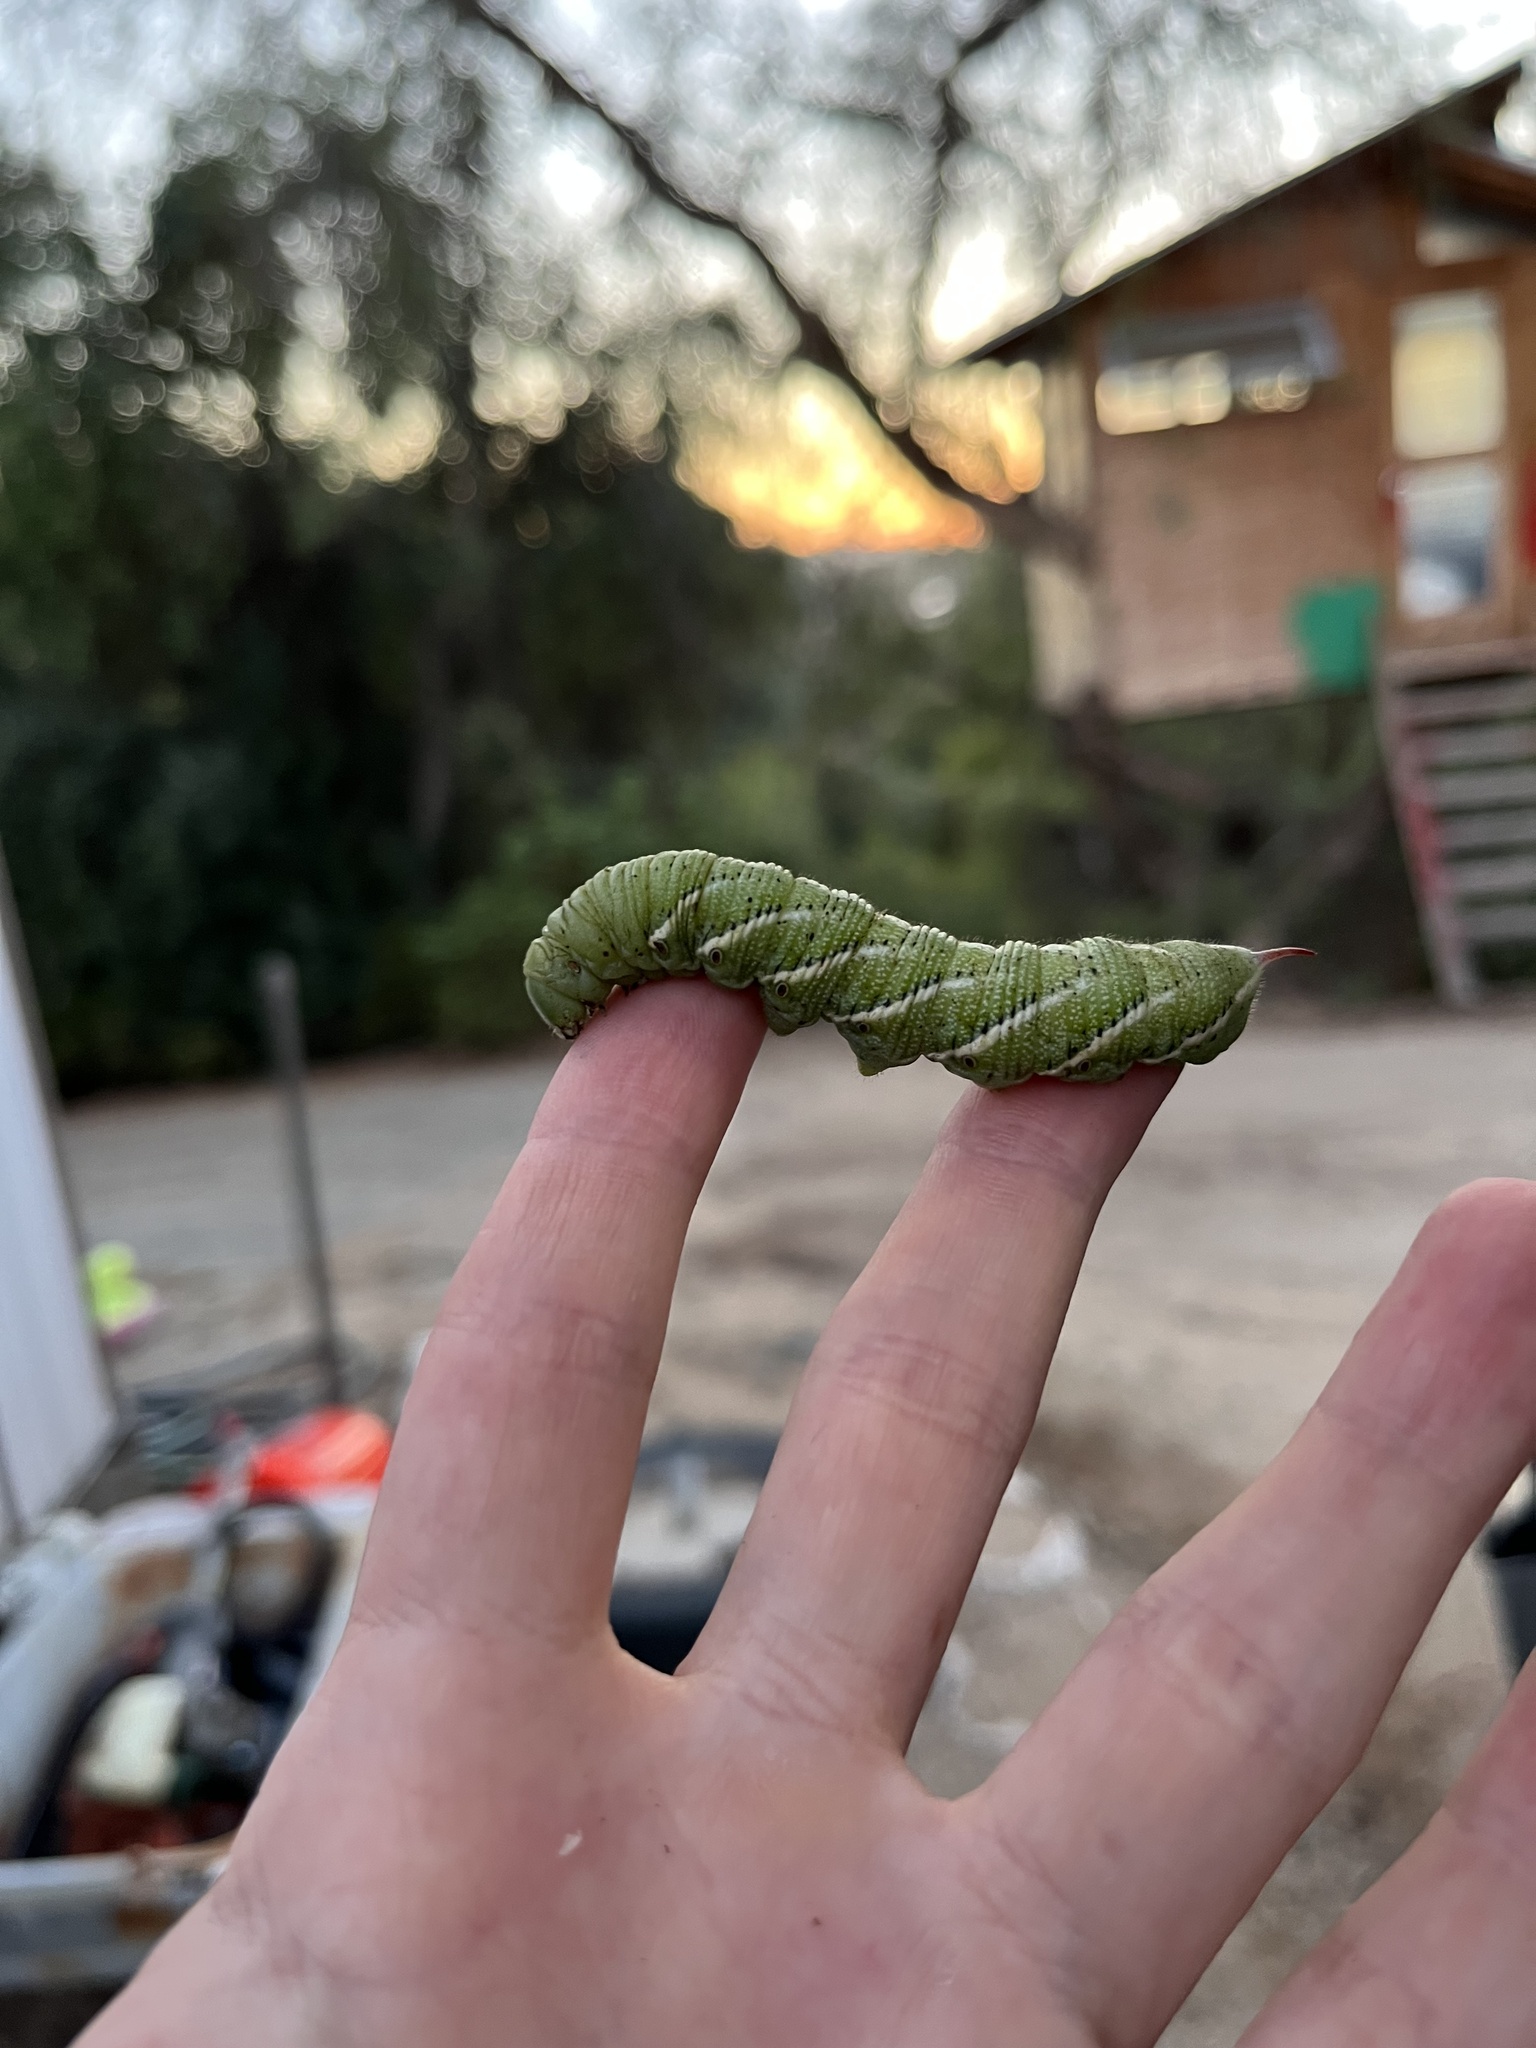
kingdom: Animalia
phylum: Arthropoda
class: Insecta
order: Lepidoptera
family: Sphingidae
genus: Manduca
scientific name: Manduca sexta
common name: Carolina sphinx
